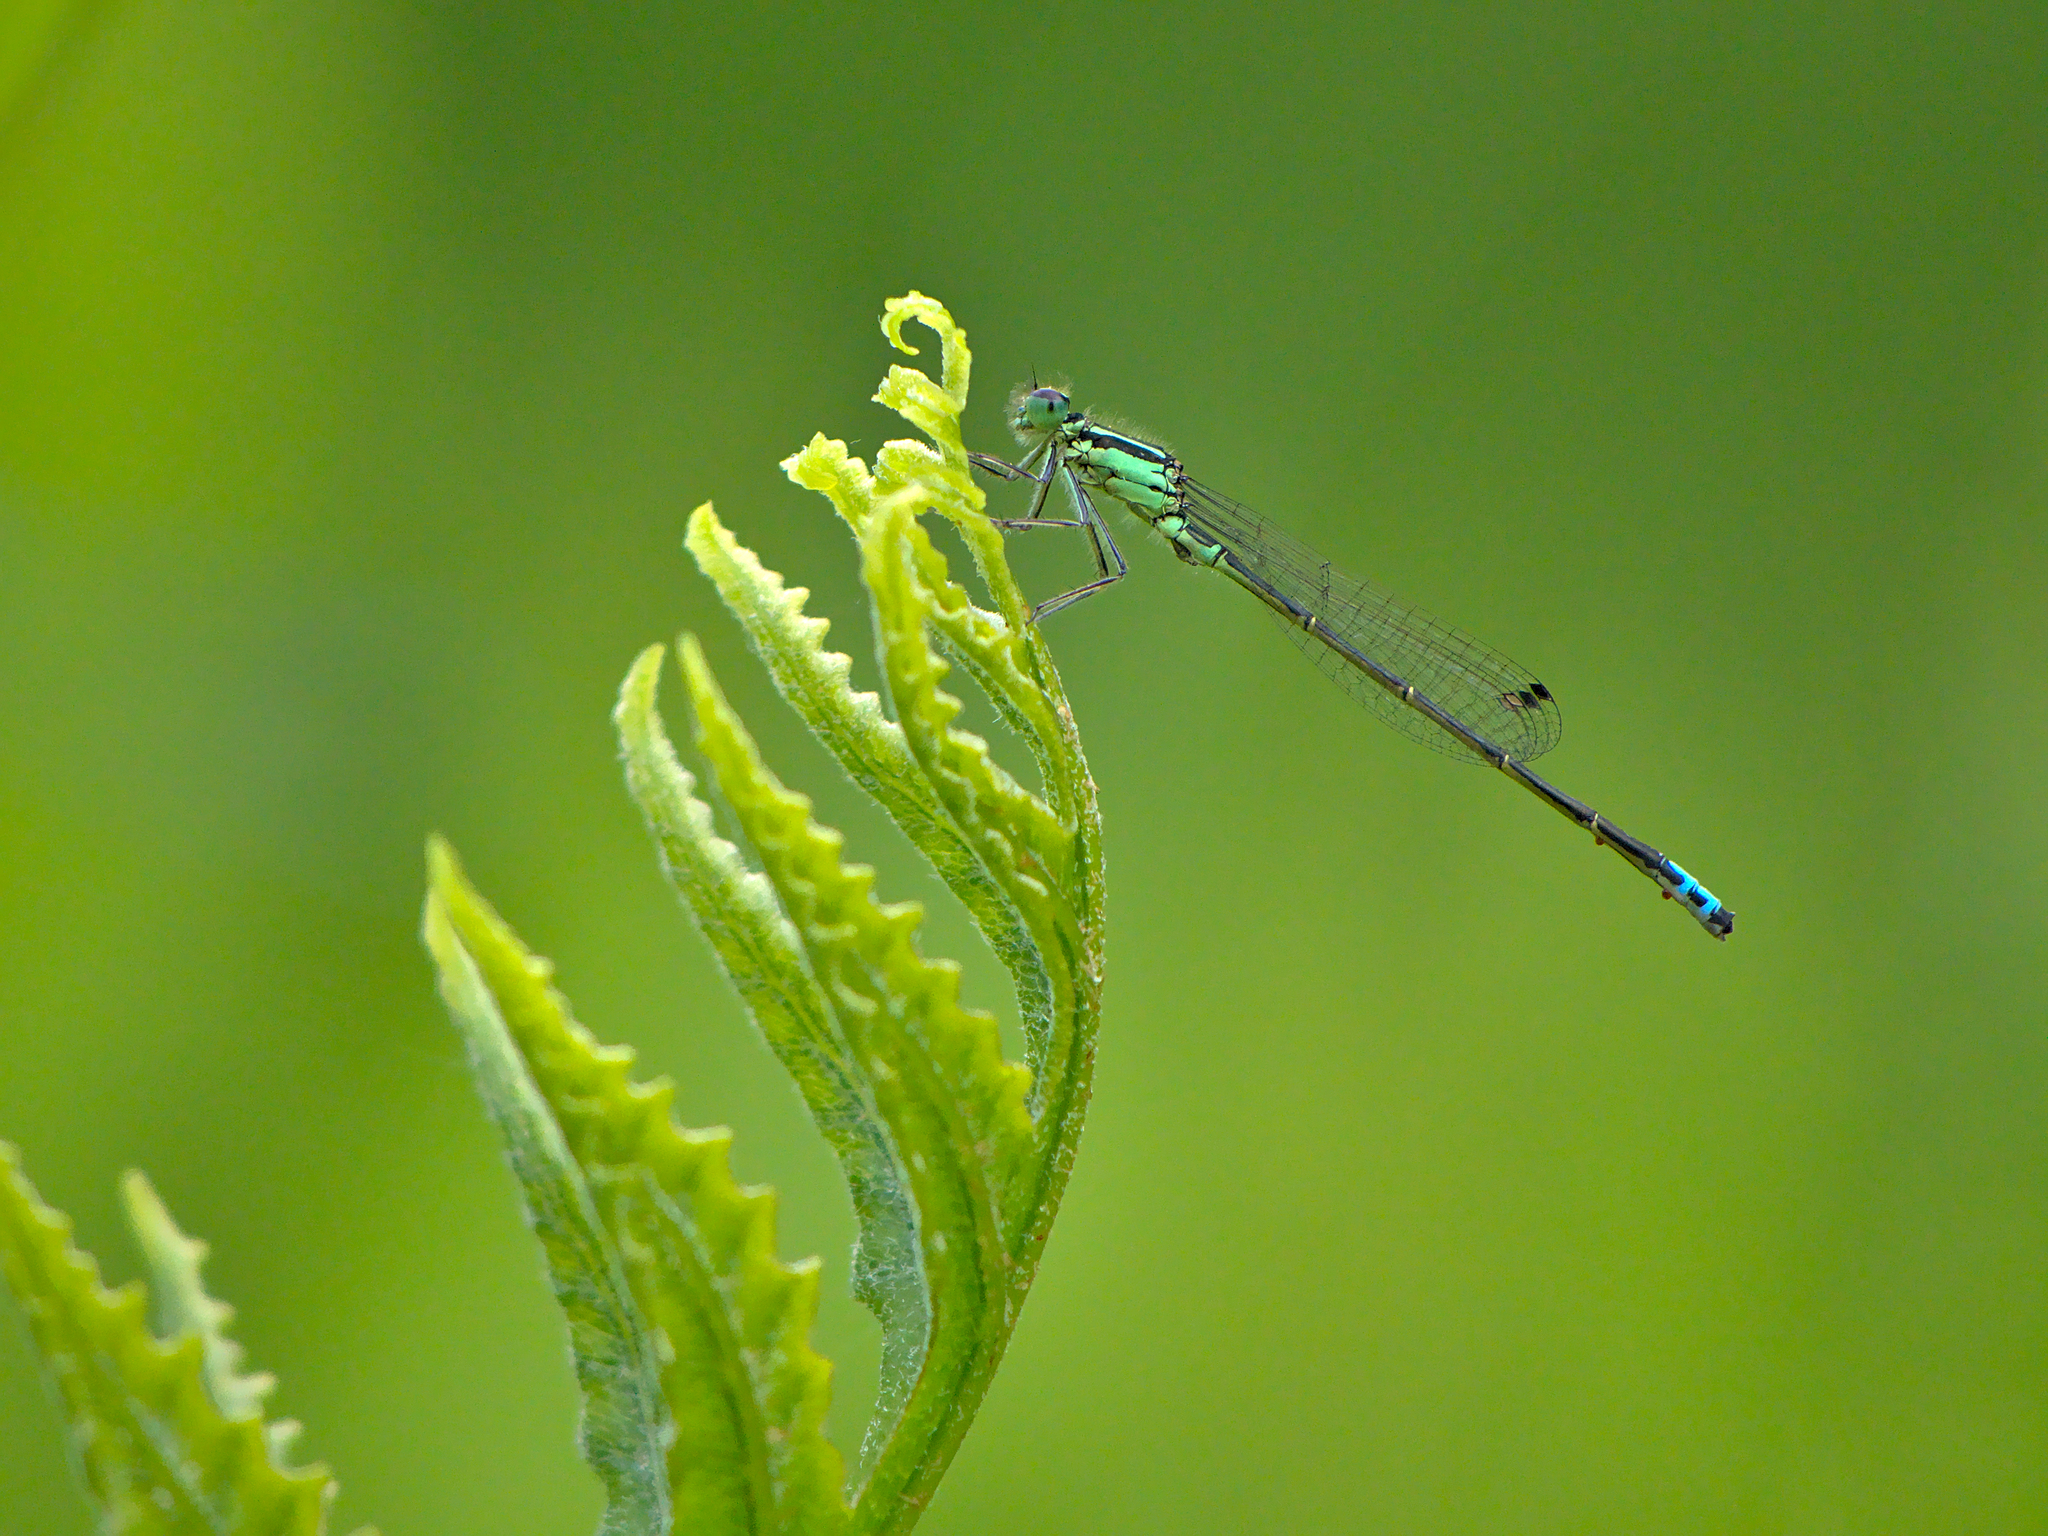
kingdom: Animalia
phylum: Arthropoda
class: Insecta
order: Odonata
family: Coenagrionidae
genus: Ischnura
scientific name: Ischnura verticalis
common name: Eastern forktail
